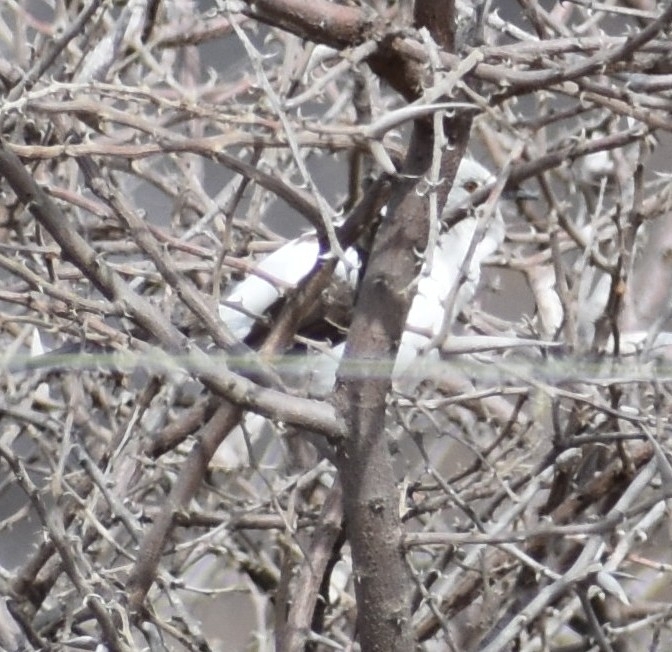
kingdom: Animalia
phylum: Chordata
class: Aves
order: Passeriformes
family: Leiothrichidae
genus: Turdoides
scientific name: Turdoides bicolor
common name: Southern pied babbler
